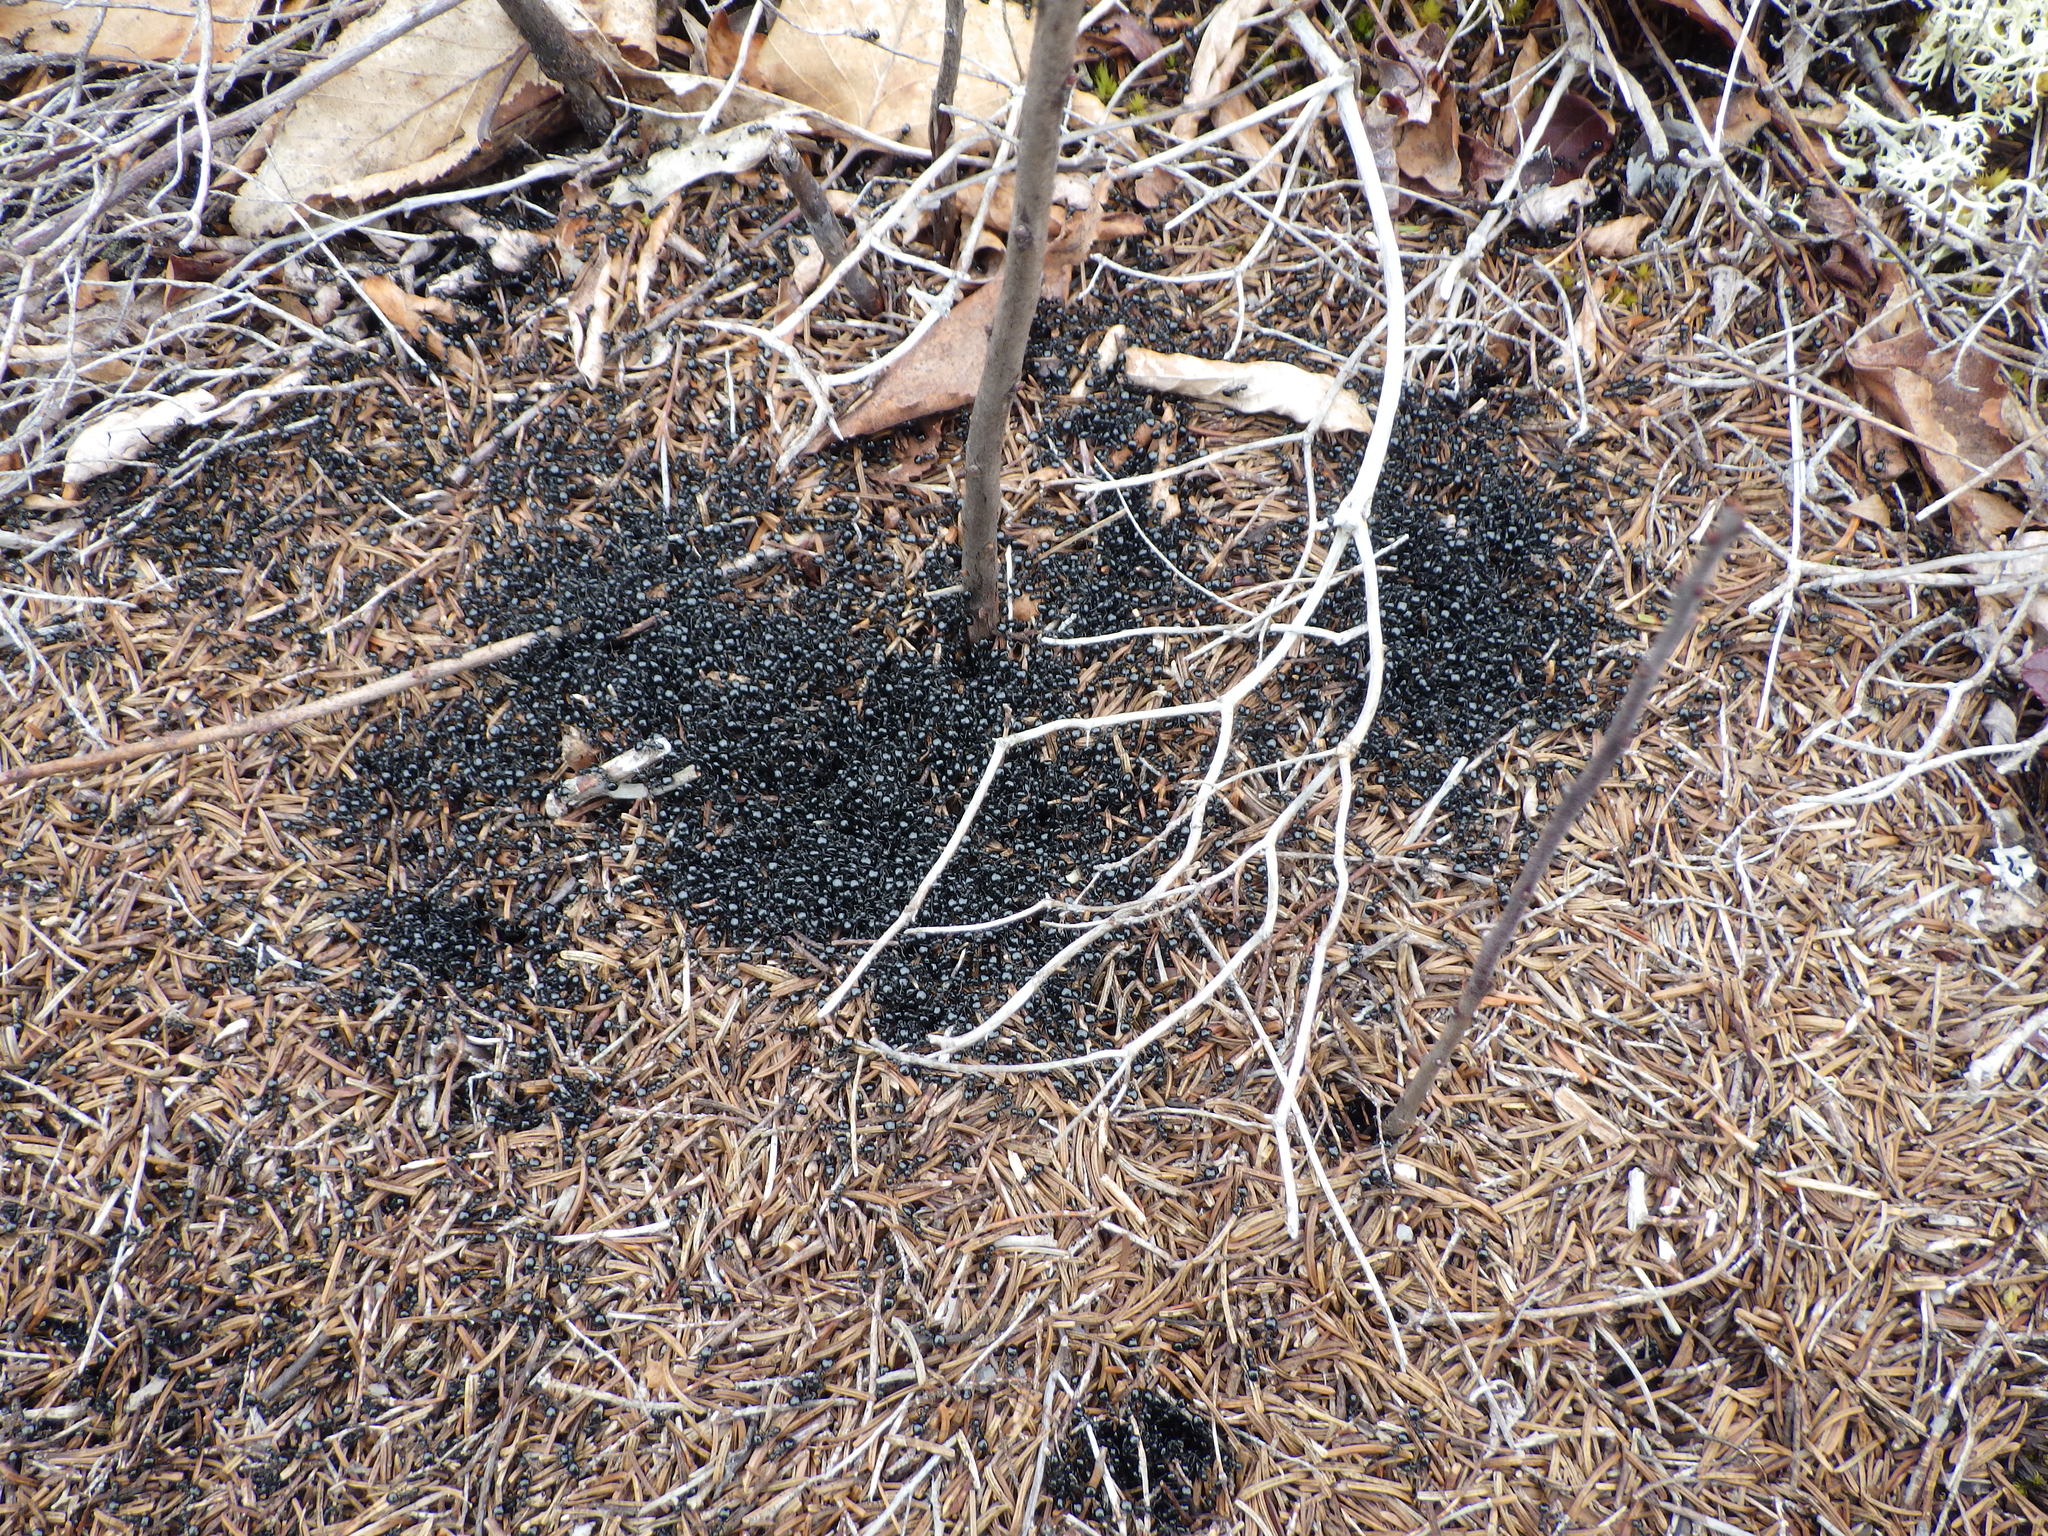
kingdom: Animalia
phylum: Arthropoda
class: Insecta
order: Hymenoptera
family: Formicidae
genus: Dolichoderus
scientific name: Dolichoderus taschenbergi
